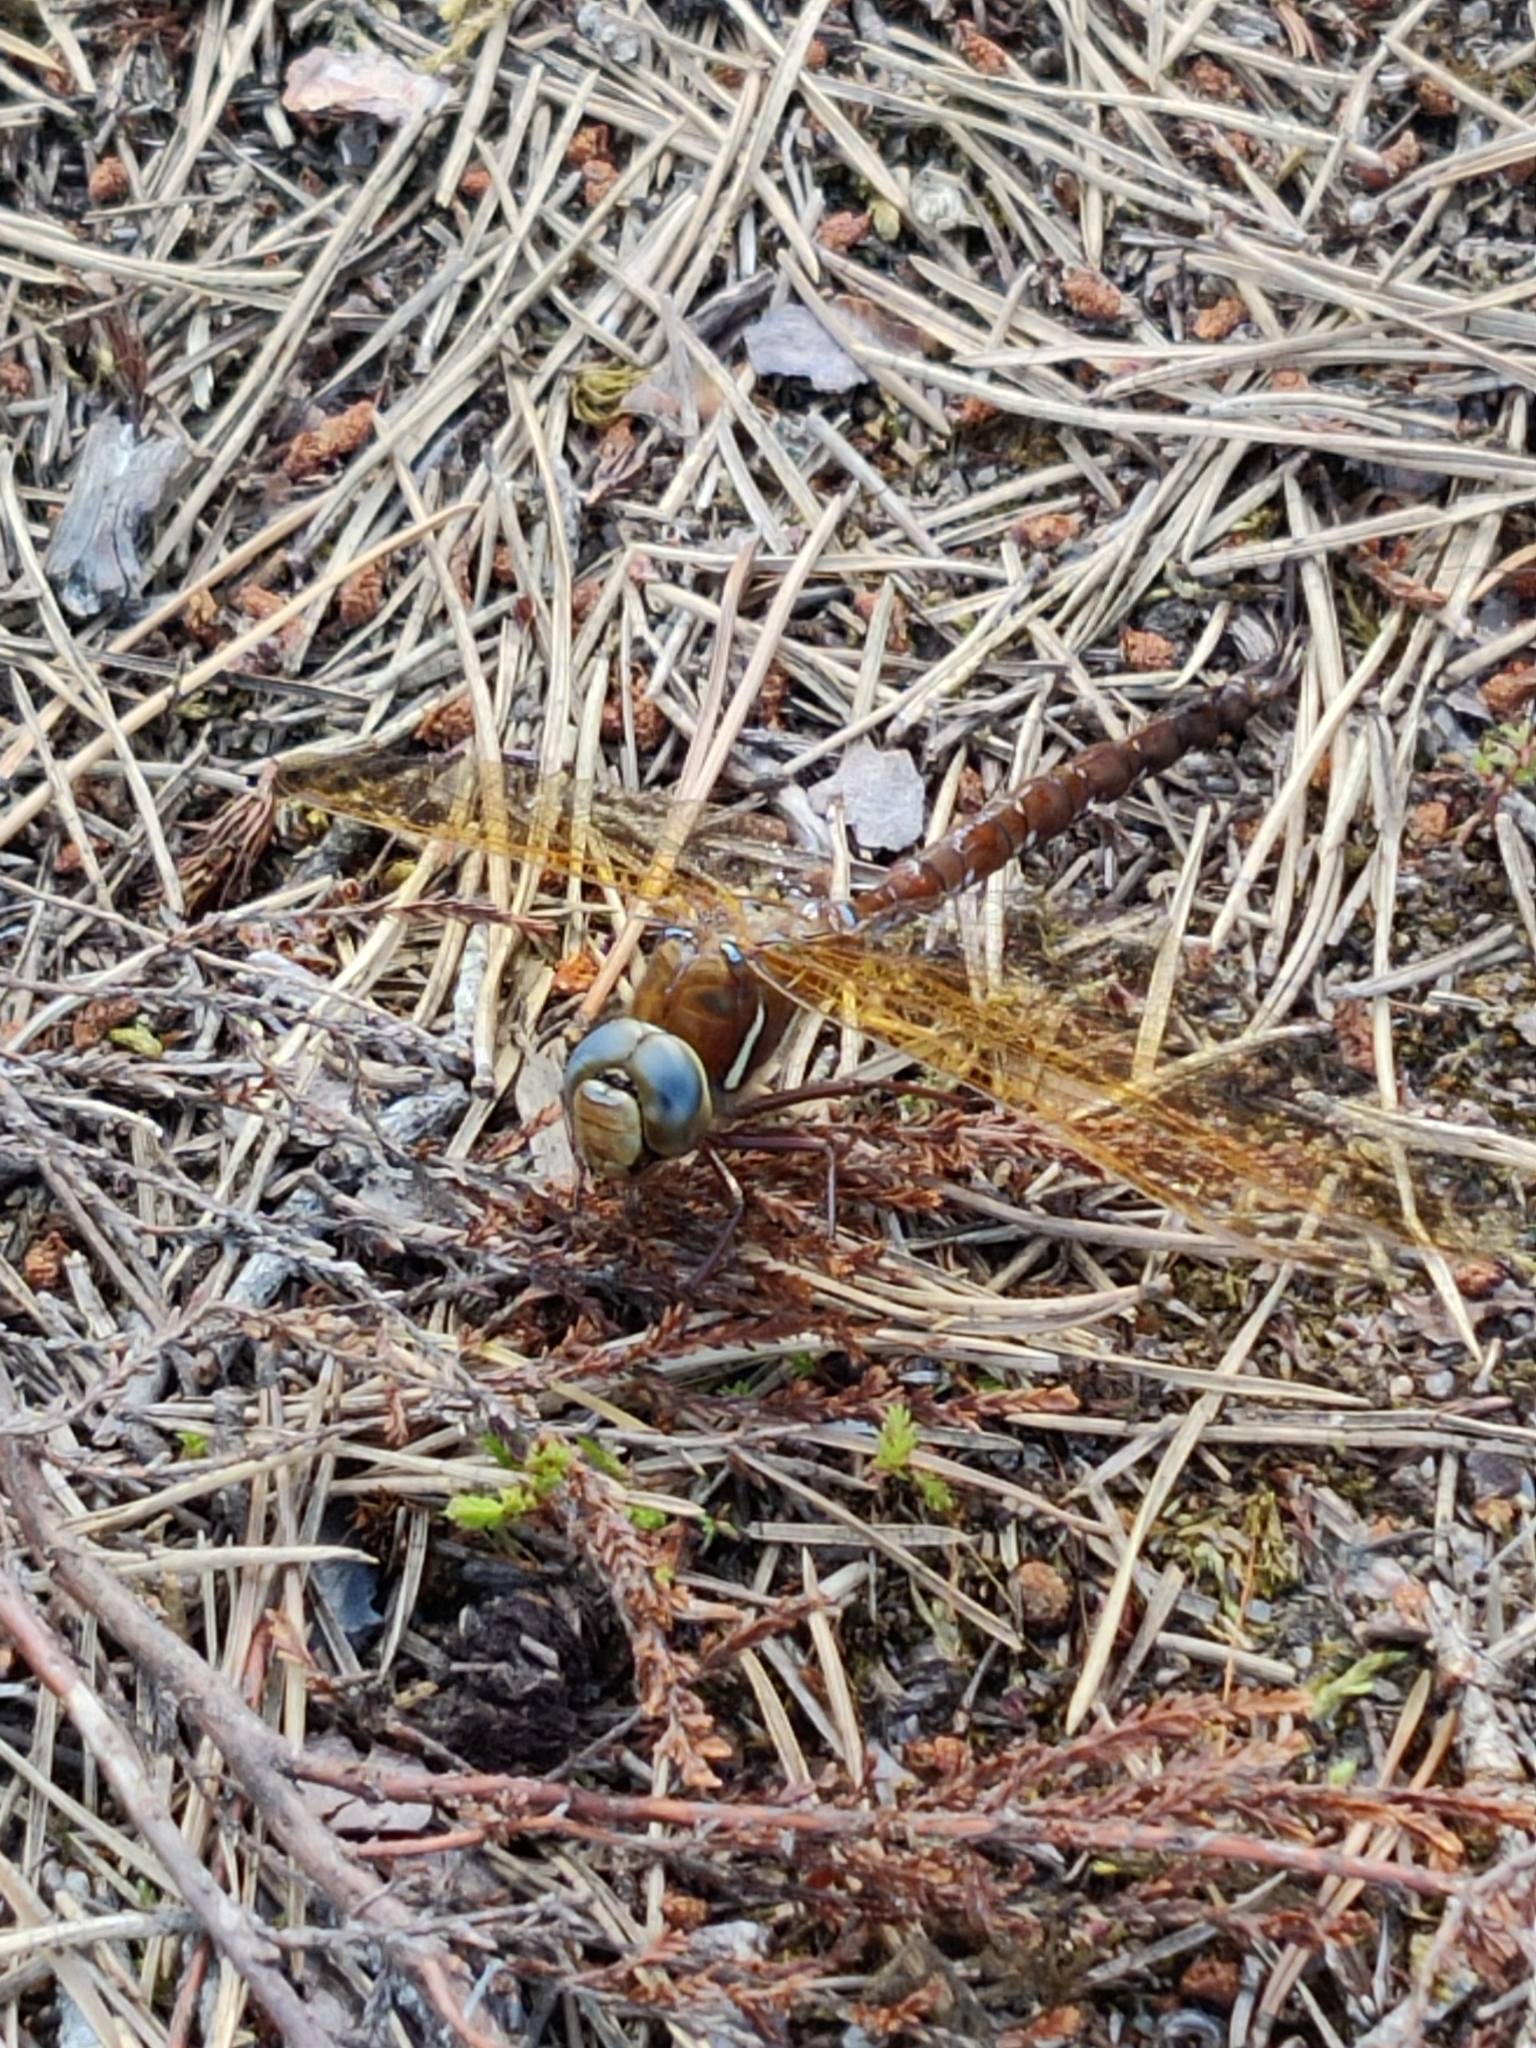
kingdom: Animalia
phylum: Arthropoda
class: Insecta
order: Odonata
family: Aeshnidae
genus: Aeshna
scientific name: Aeshna grandis
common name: Brown hawker
